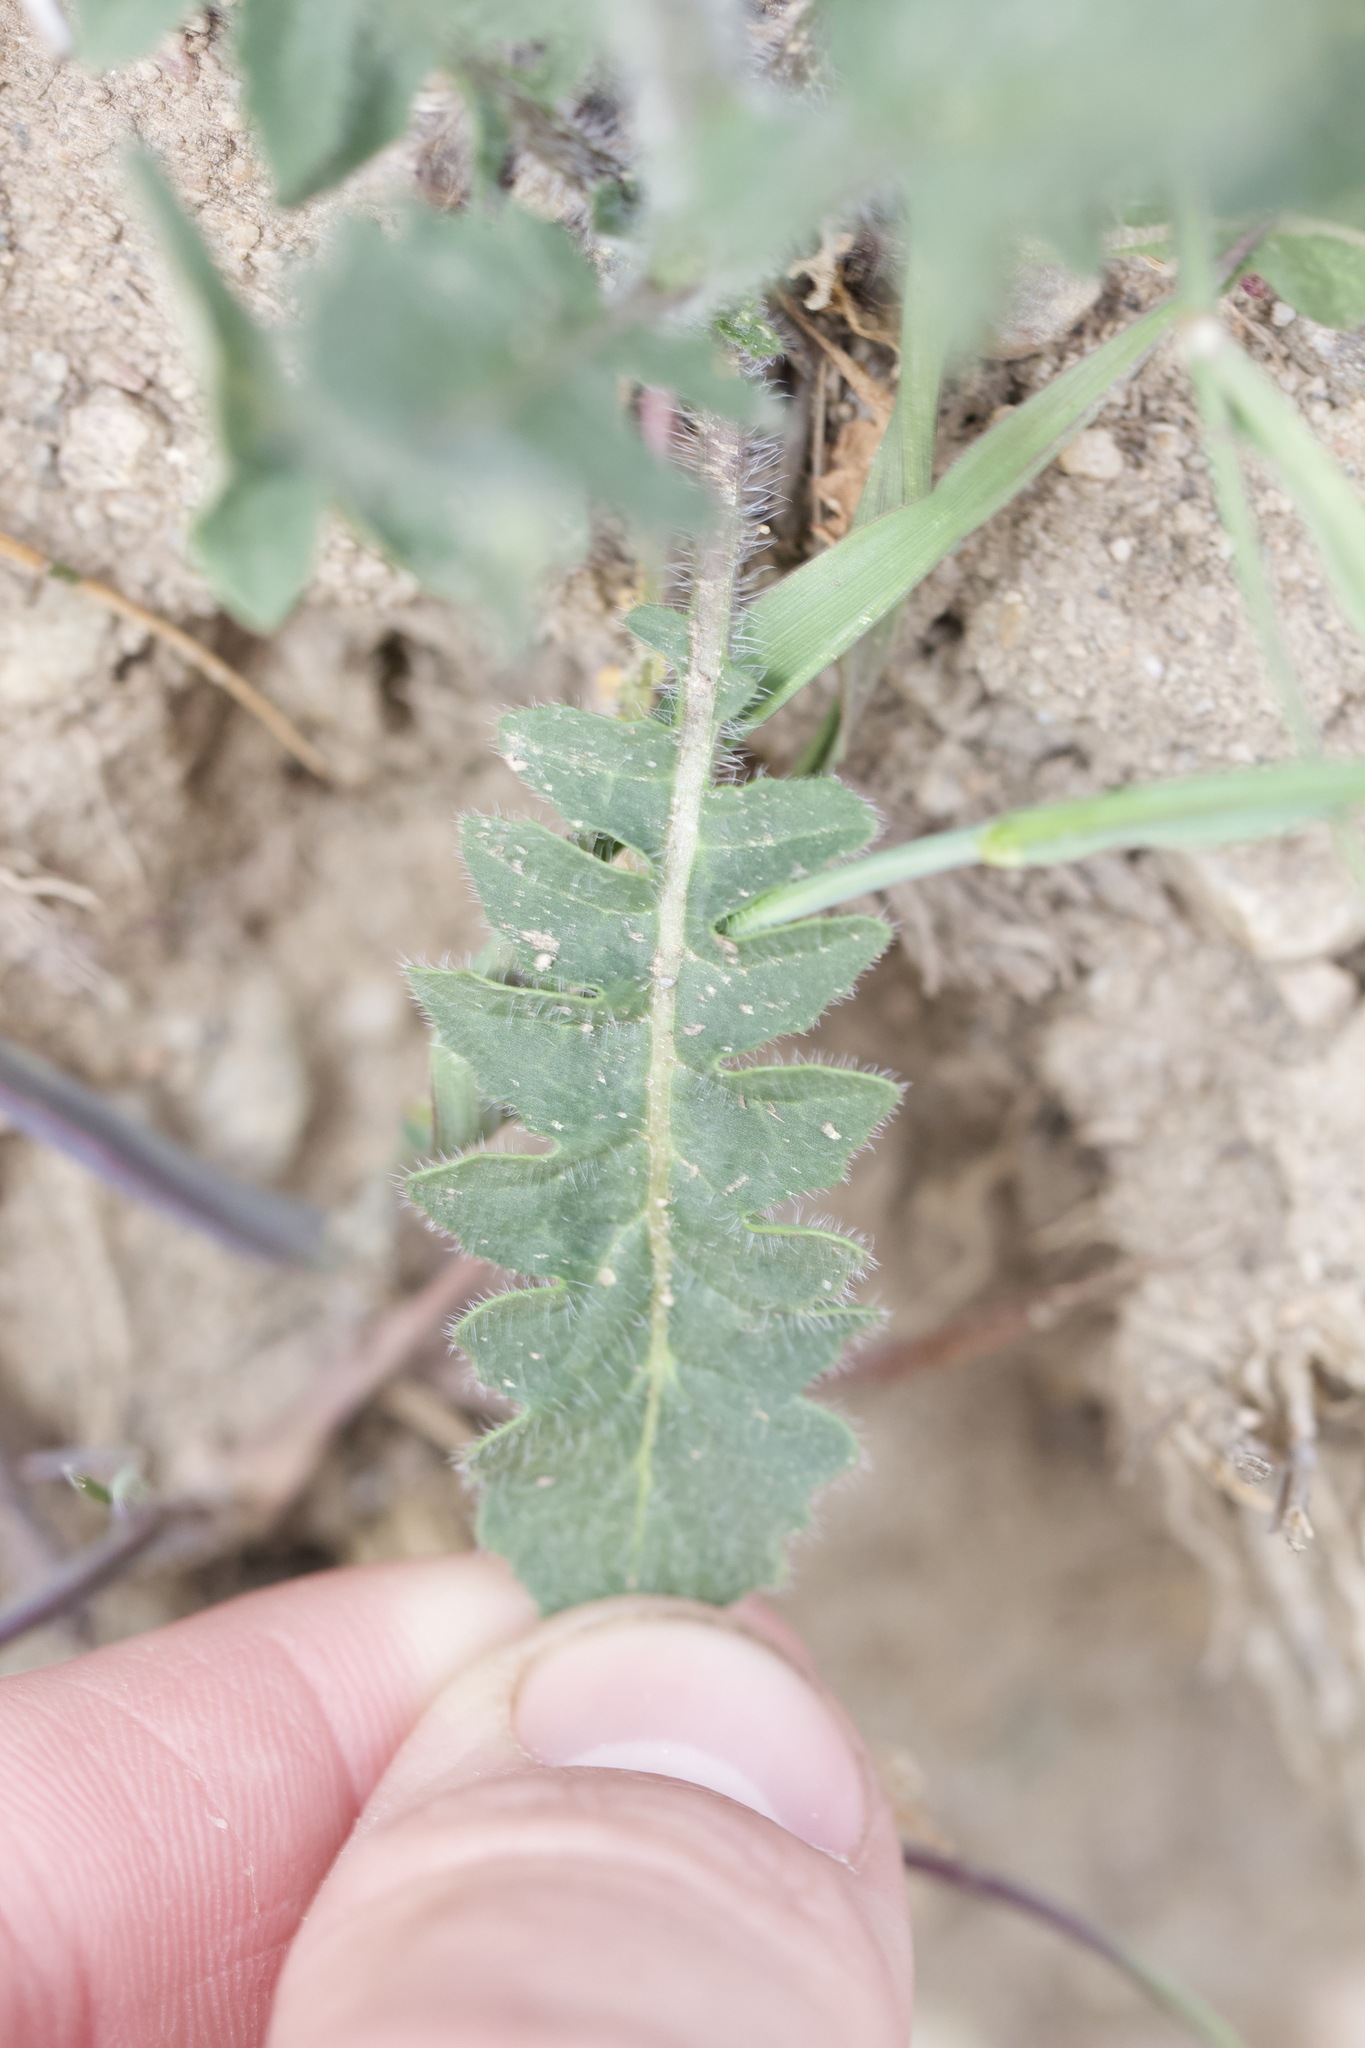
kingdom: Plantae
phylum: Tracheophyta
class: Magnoliopsida
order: Brassicales
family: Brassicaceae
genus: Sisymbrium
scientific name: Sisymbrium loeselii
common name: False london-rocket
